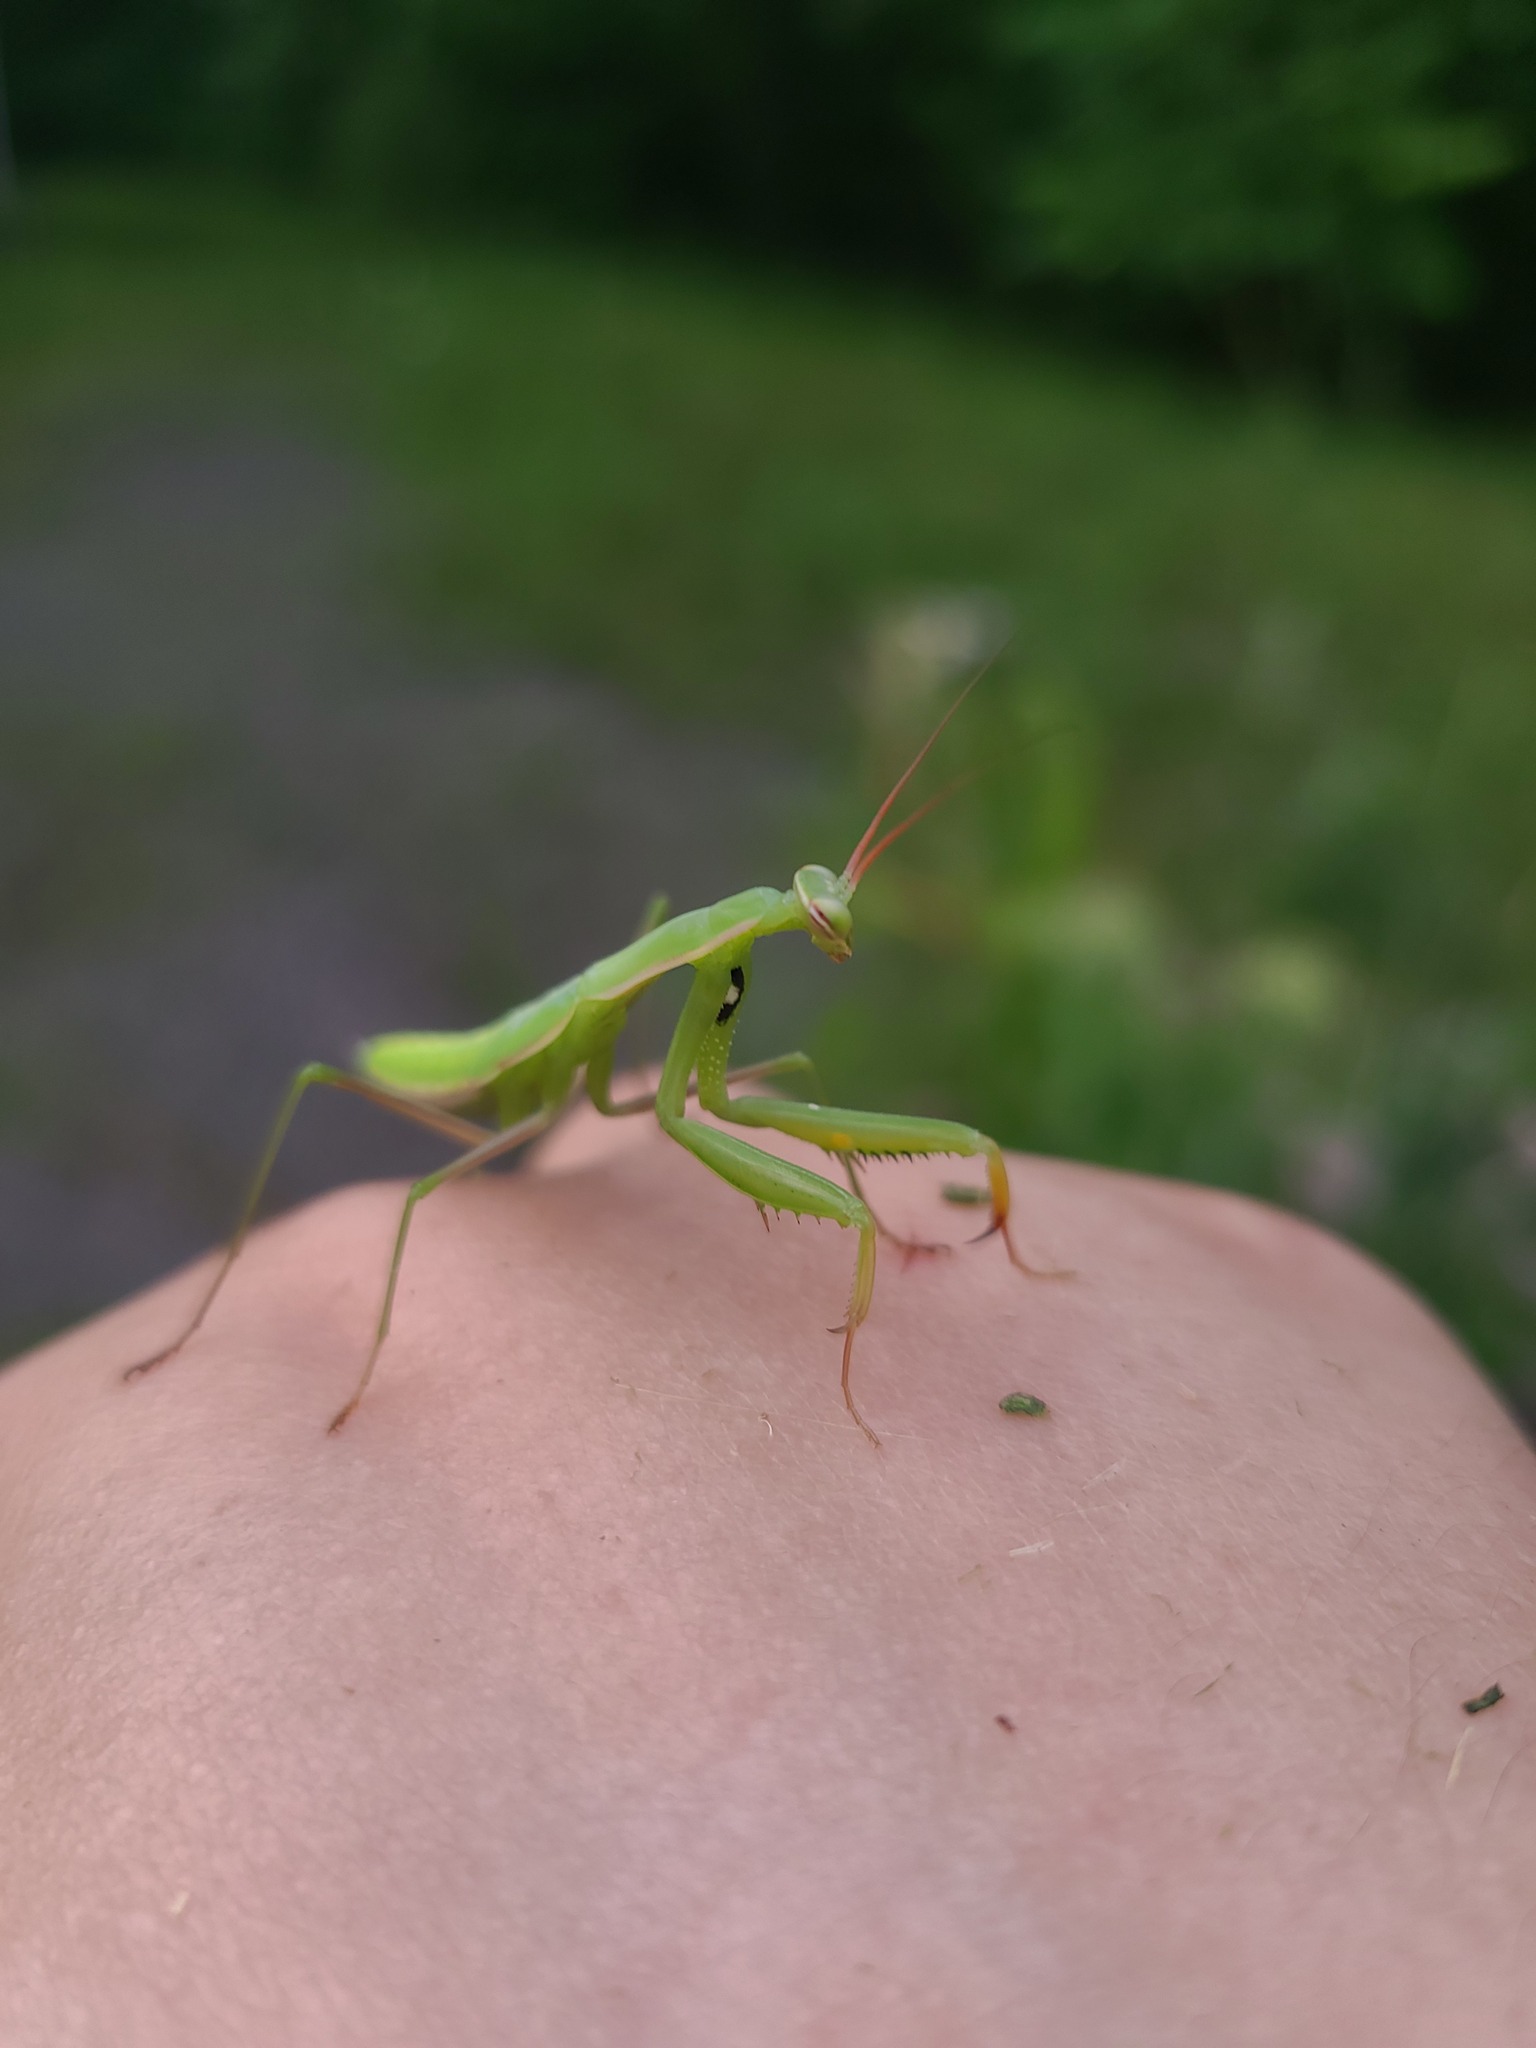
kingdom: Animalia
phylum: Arthropoda
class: Insecta
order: Mantodea
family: Mantidae
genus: Mantis
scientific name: Mantis religiosa
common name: Praying mantis
